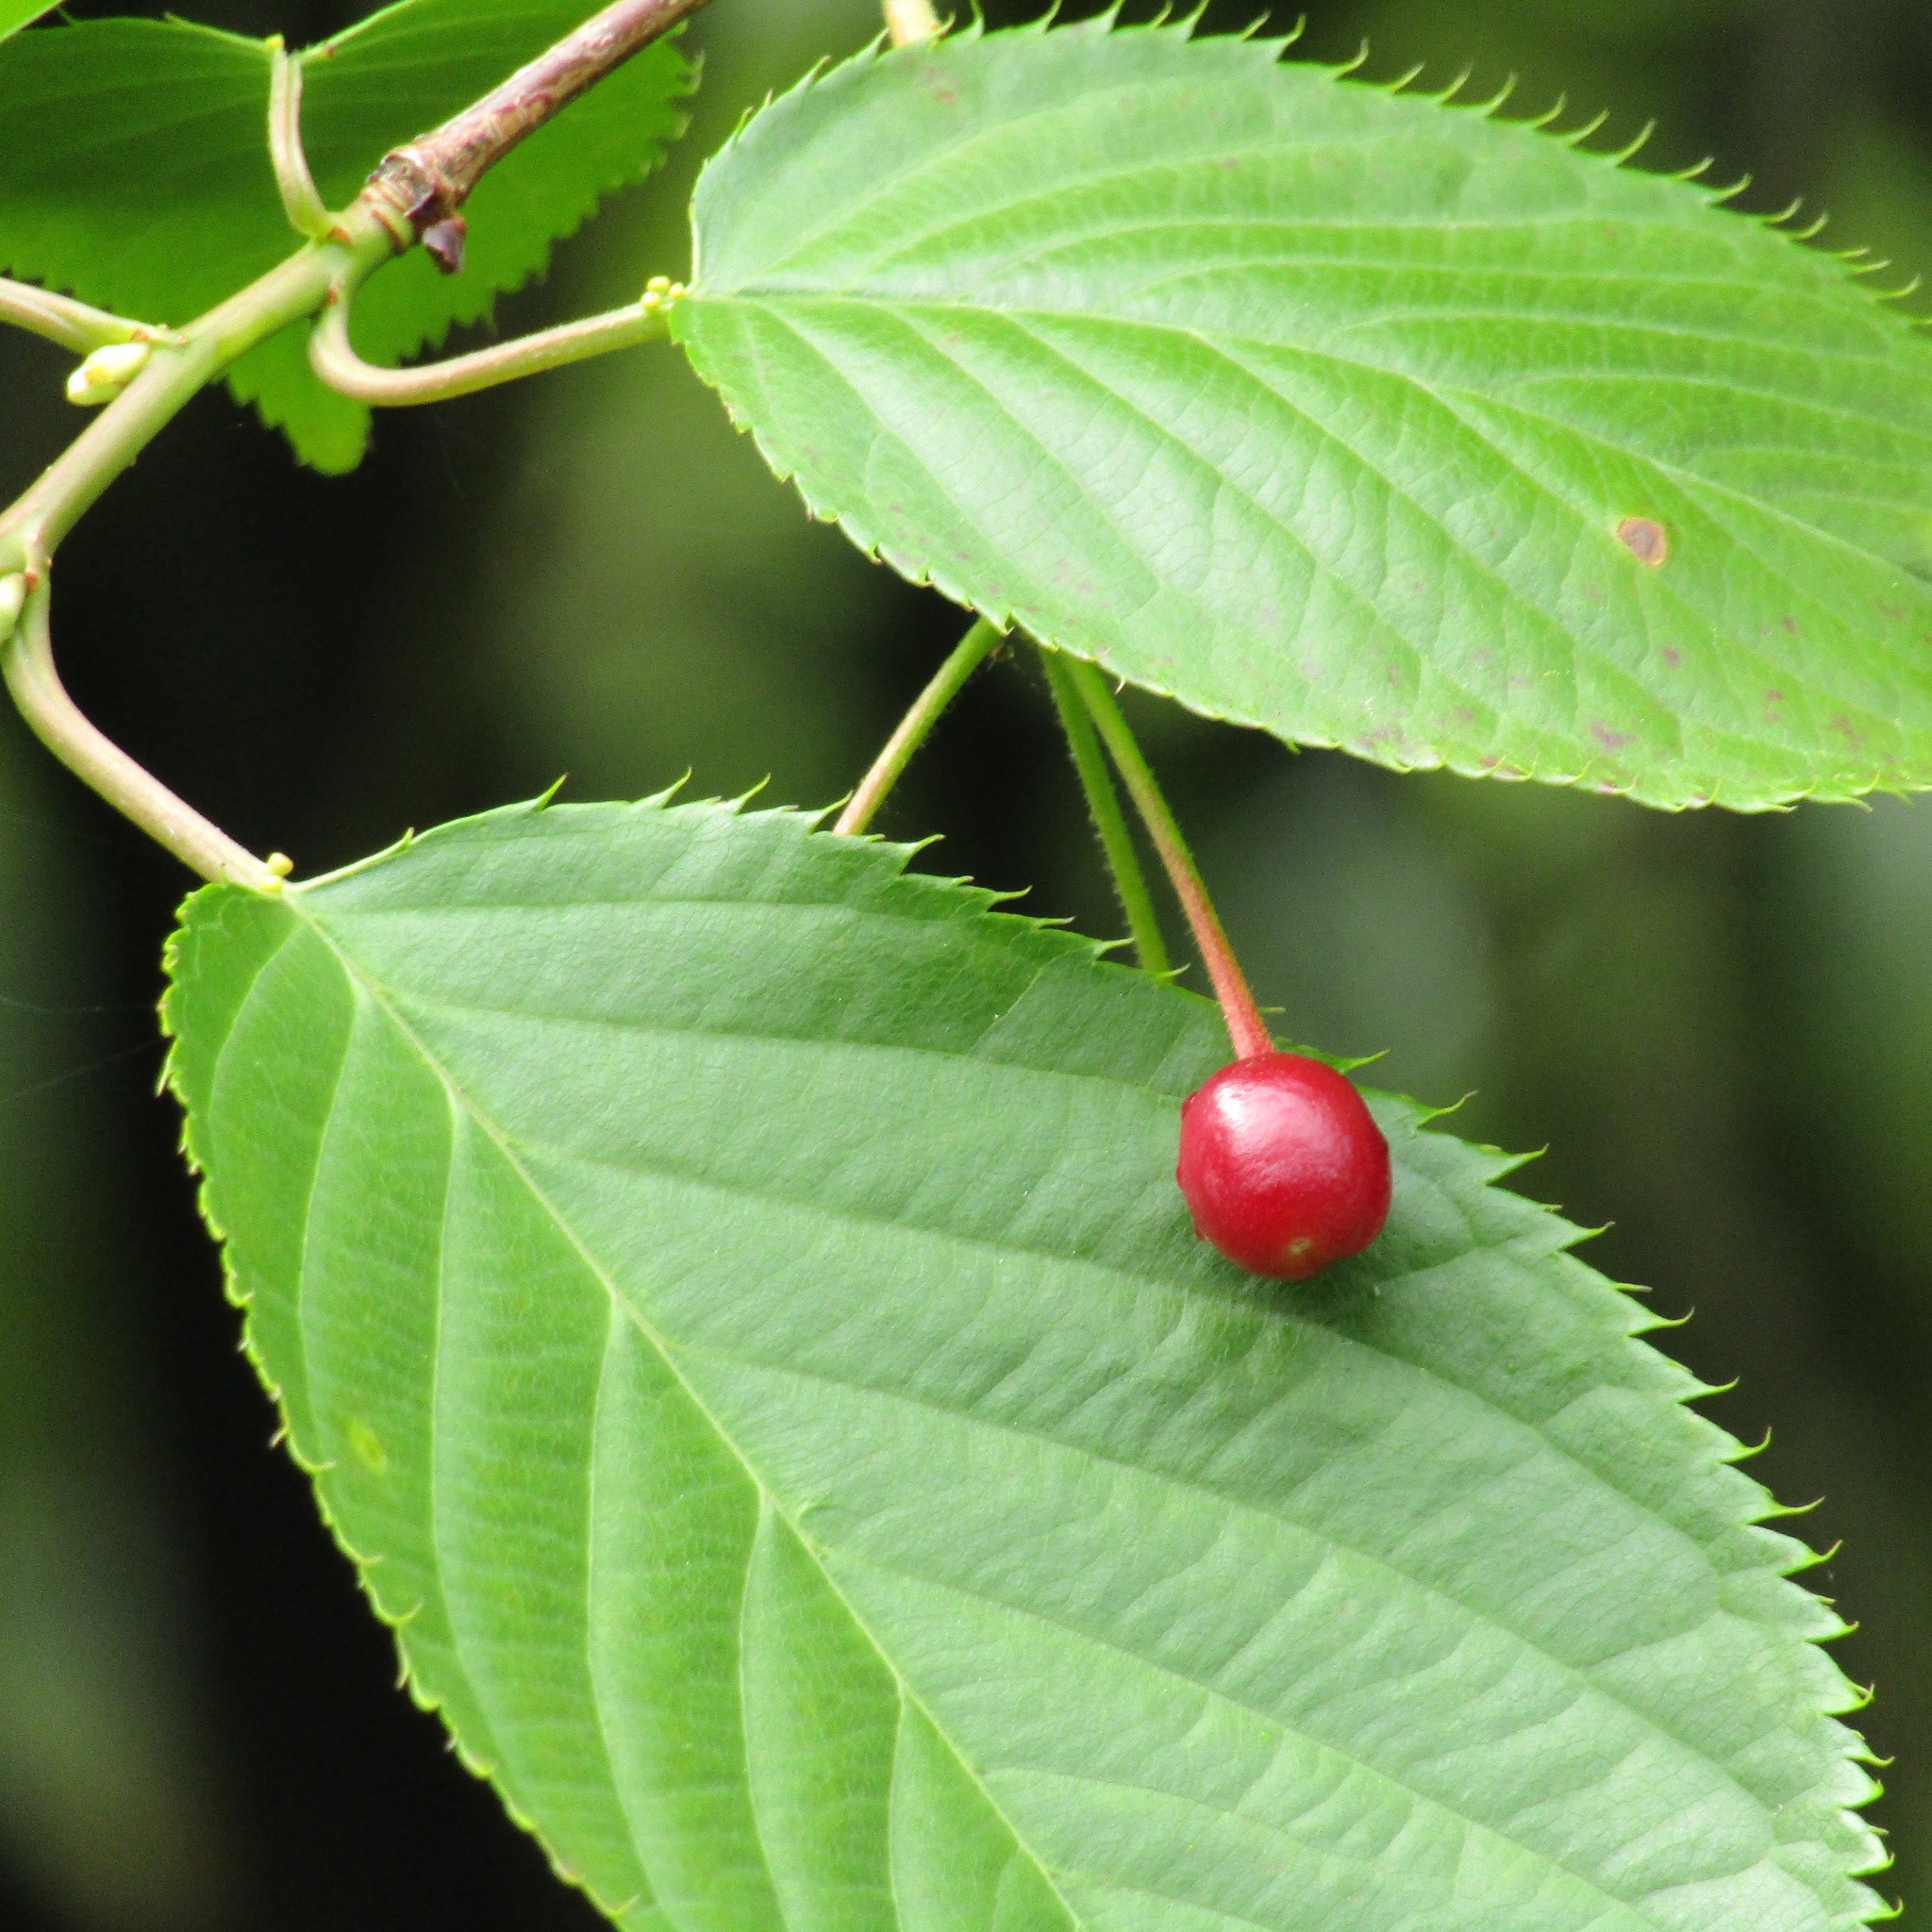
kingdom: Plantae
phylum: Tracheophyta
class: Magnoliopsida
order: Rosales
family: Rosaceae
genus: Prunus
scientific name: Prunus serrulata
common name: Japanese cherry
